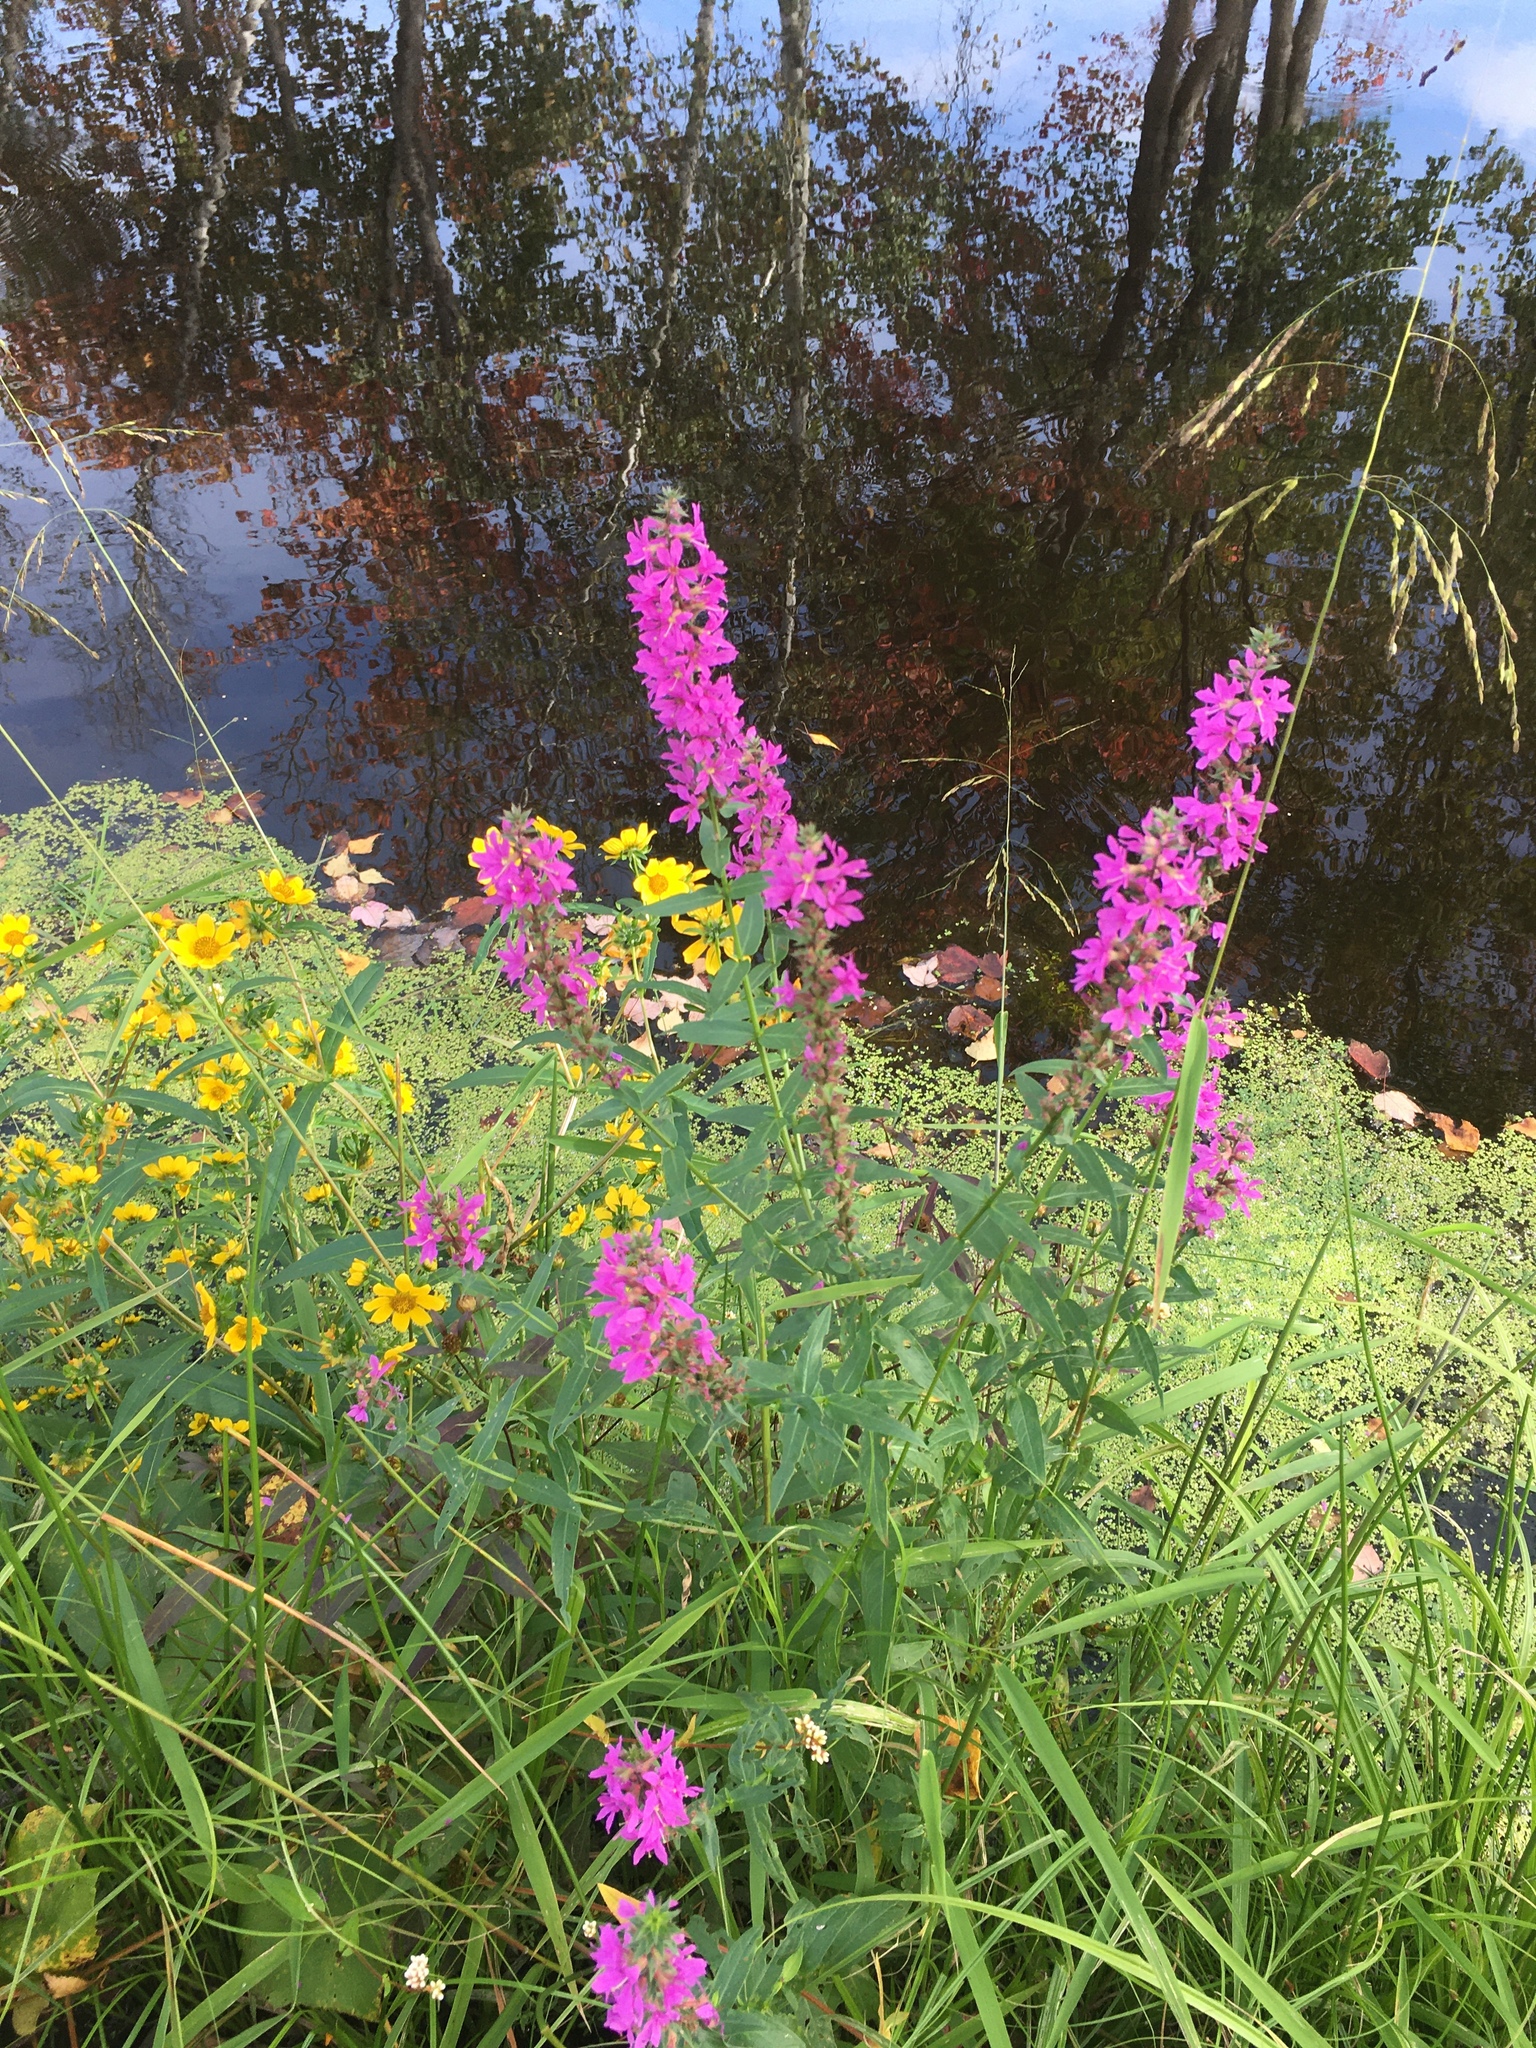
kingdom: Plantae
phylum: Tracheophyta
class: Magnoliopsida
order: Myrtales
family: Lythraceae
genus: Lythrum
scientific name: Lythrum salicaria
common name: Purple loosestrife
